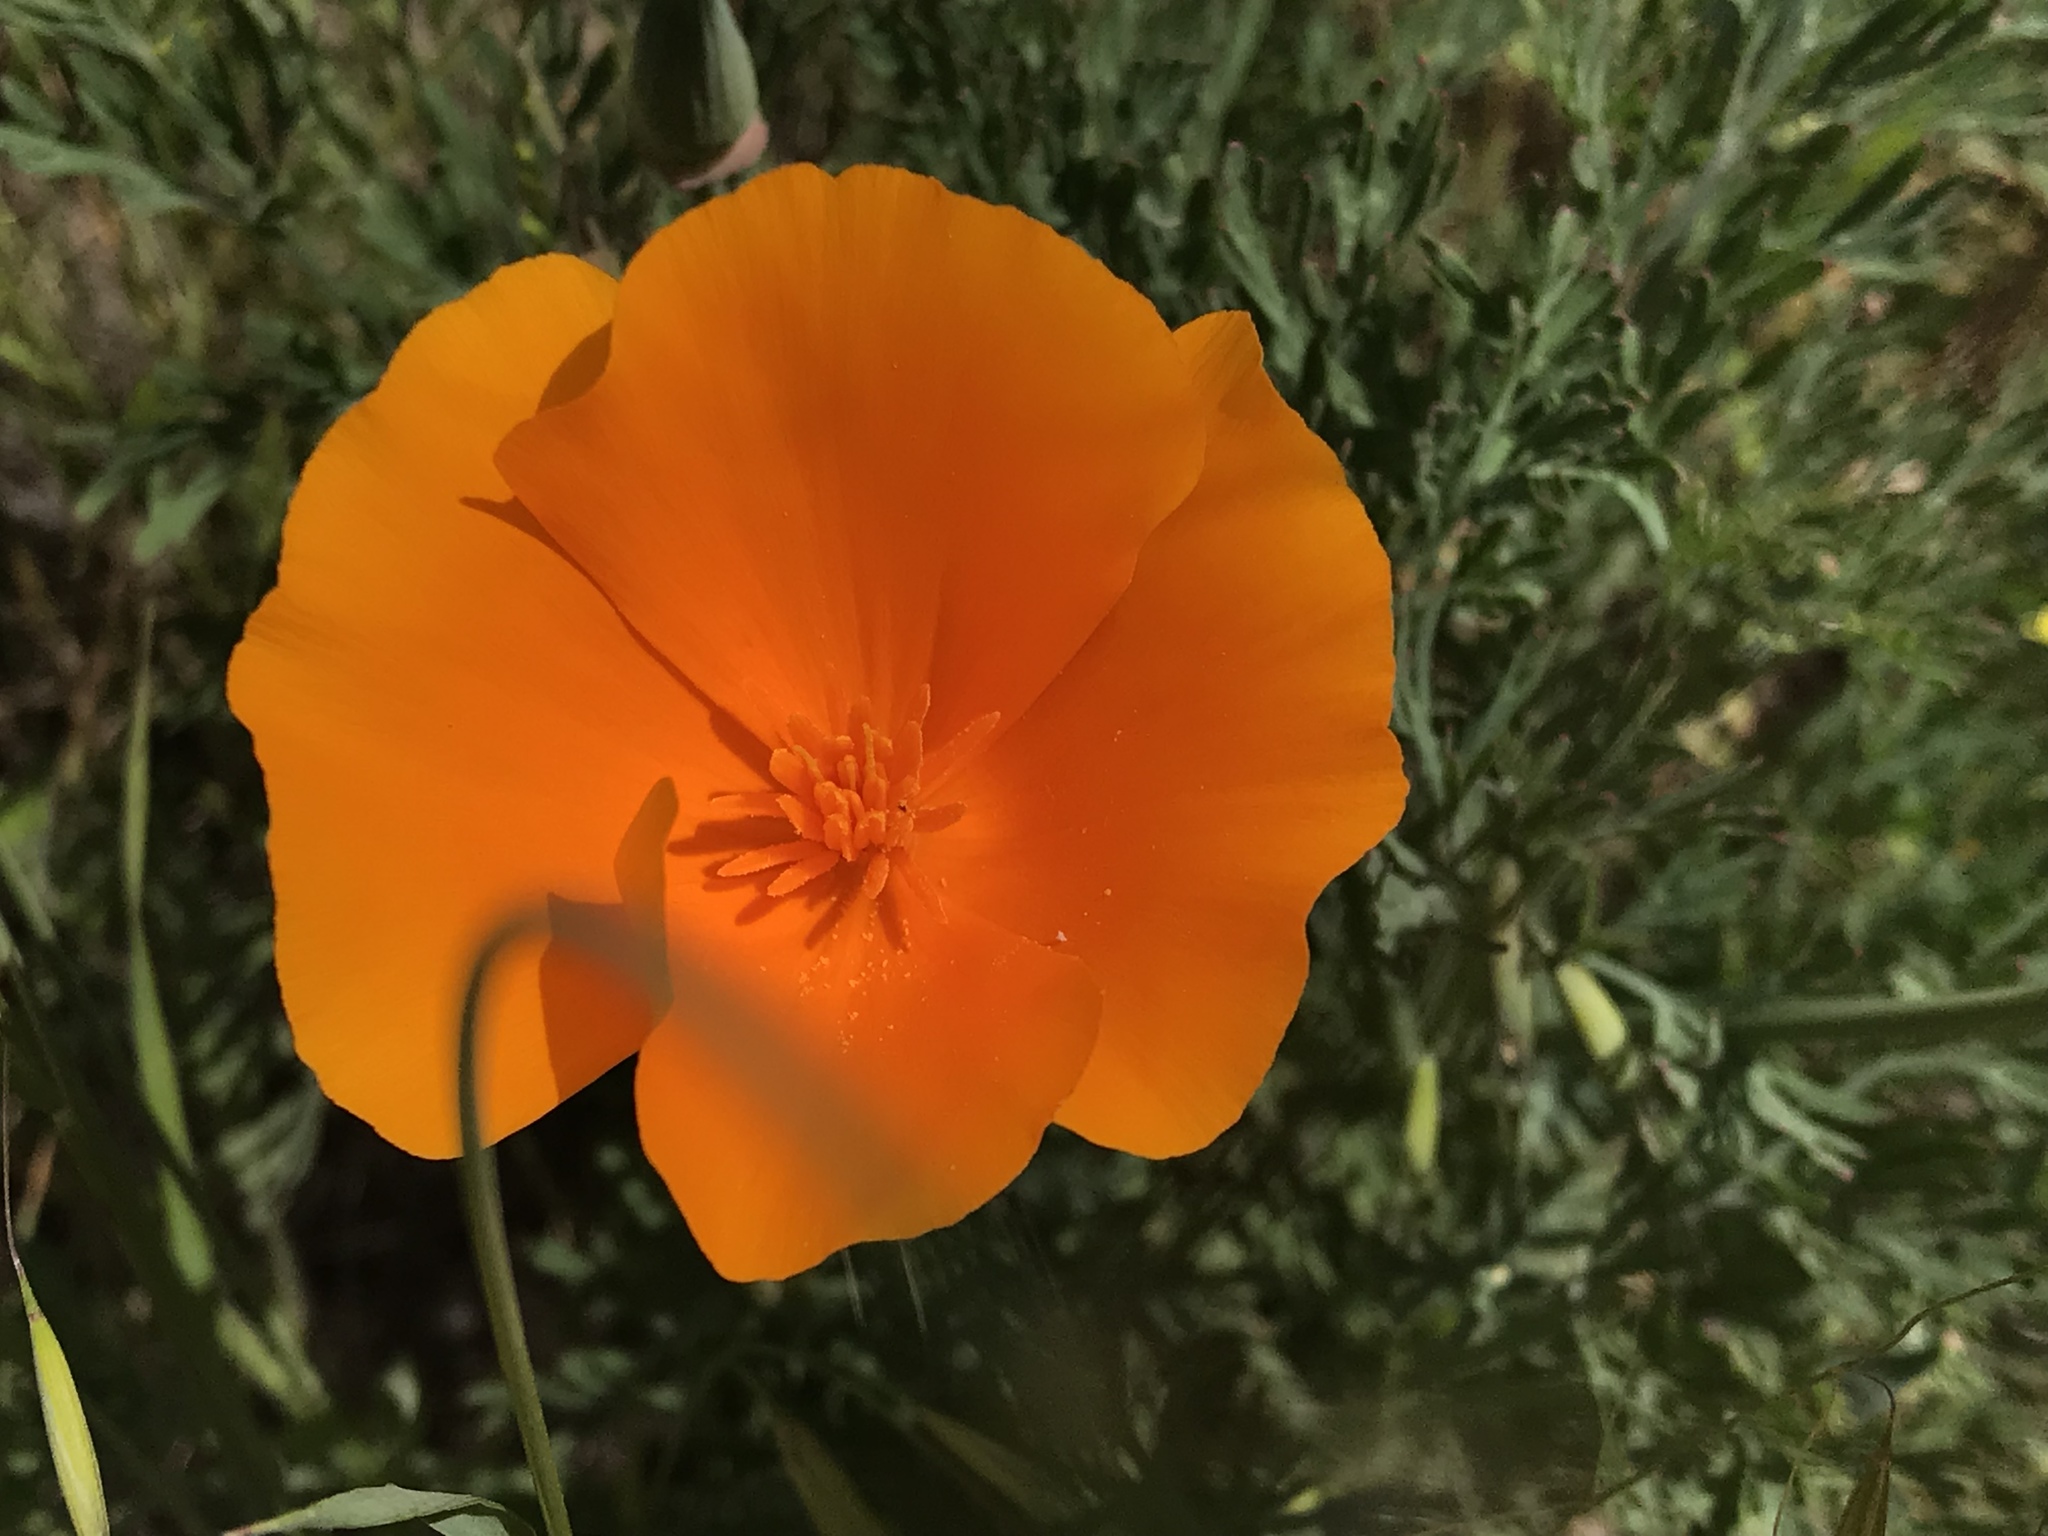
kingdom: Plantae
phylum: Tracheophyta
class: Magnoliopsida
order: Ranunculales
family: Papaveraceae
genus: Eschscholzia
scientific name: Eschscholzia californica
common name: California poppy
